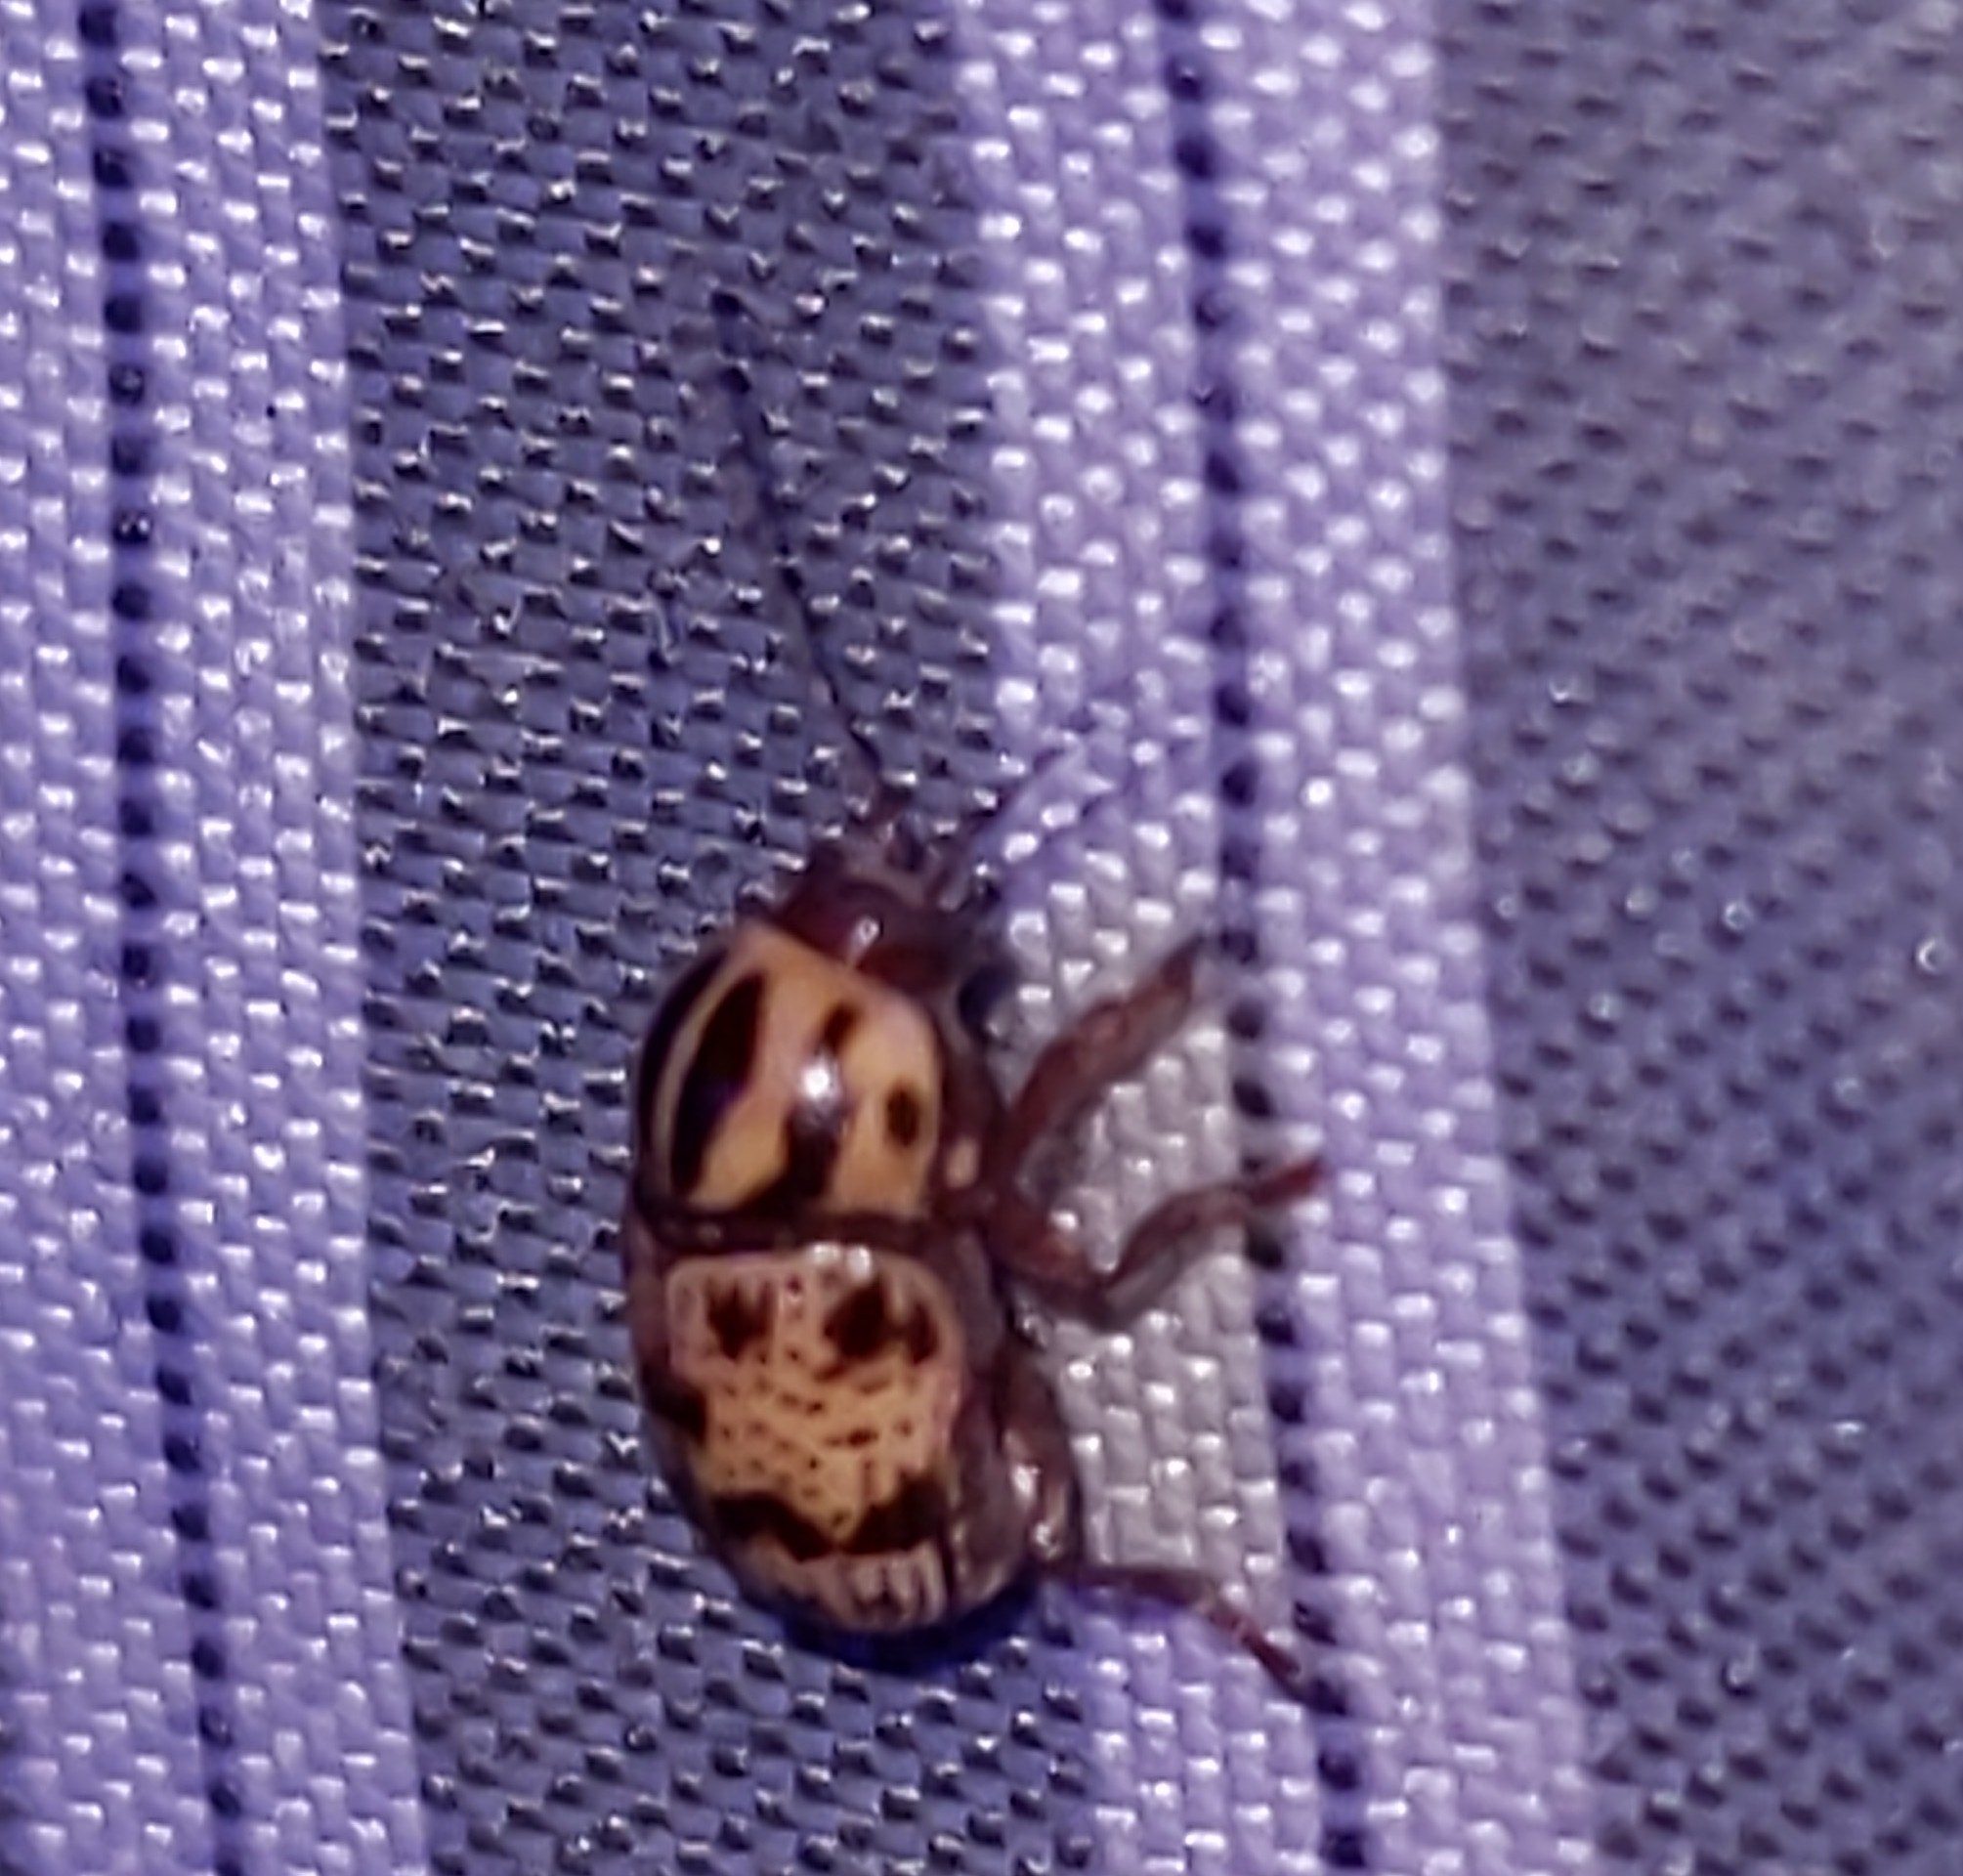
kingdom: Animalia
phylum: Arthropoda
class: Insecta
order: Coleoptera
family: Chrysomelidae
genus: Cryptocephalus
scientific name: Cryptocephalus maccus
